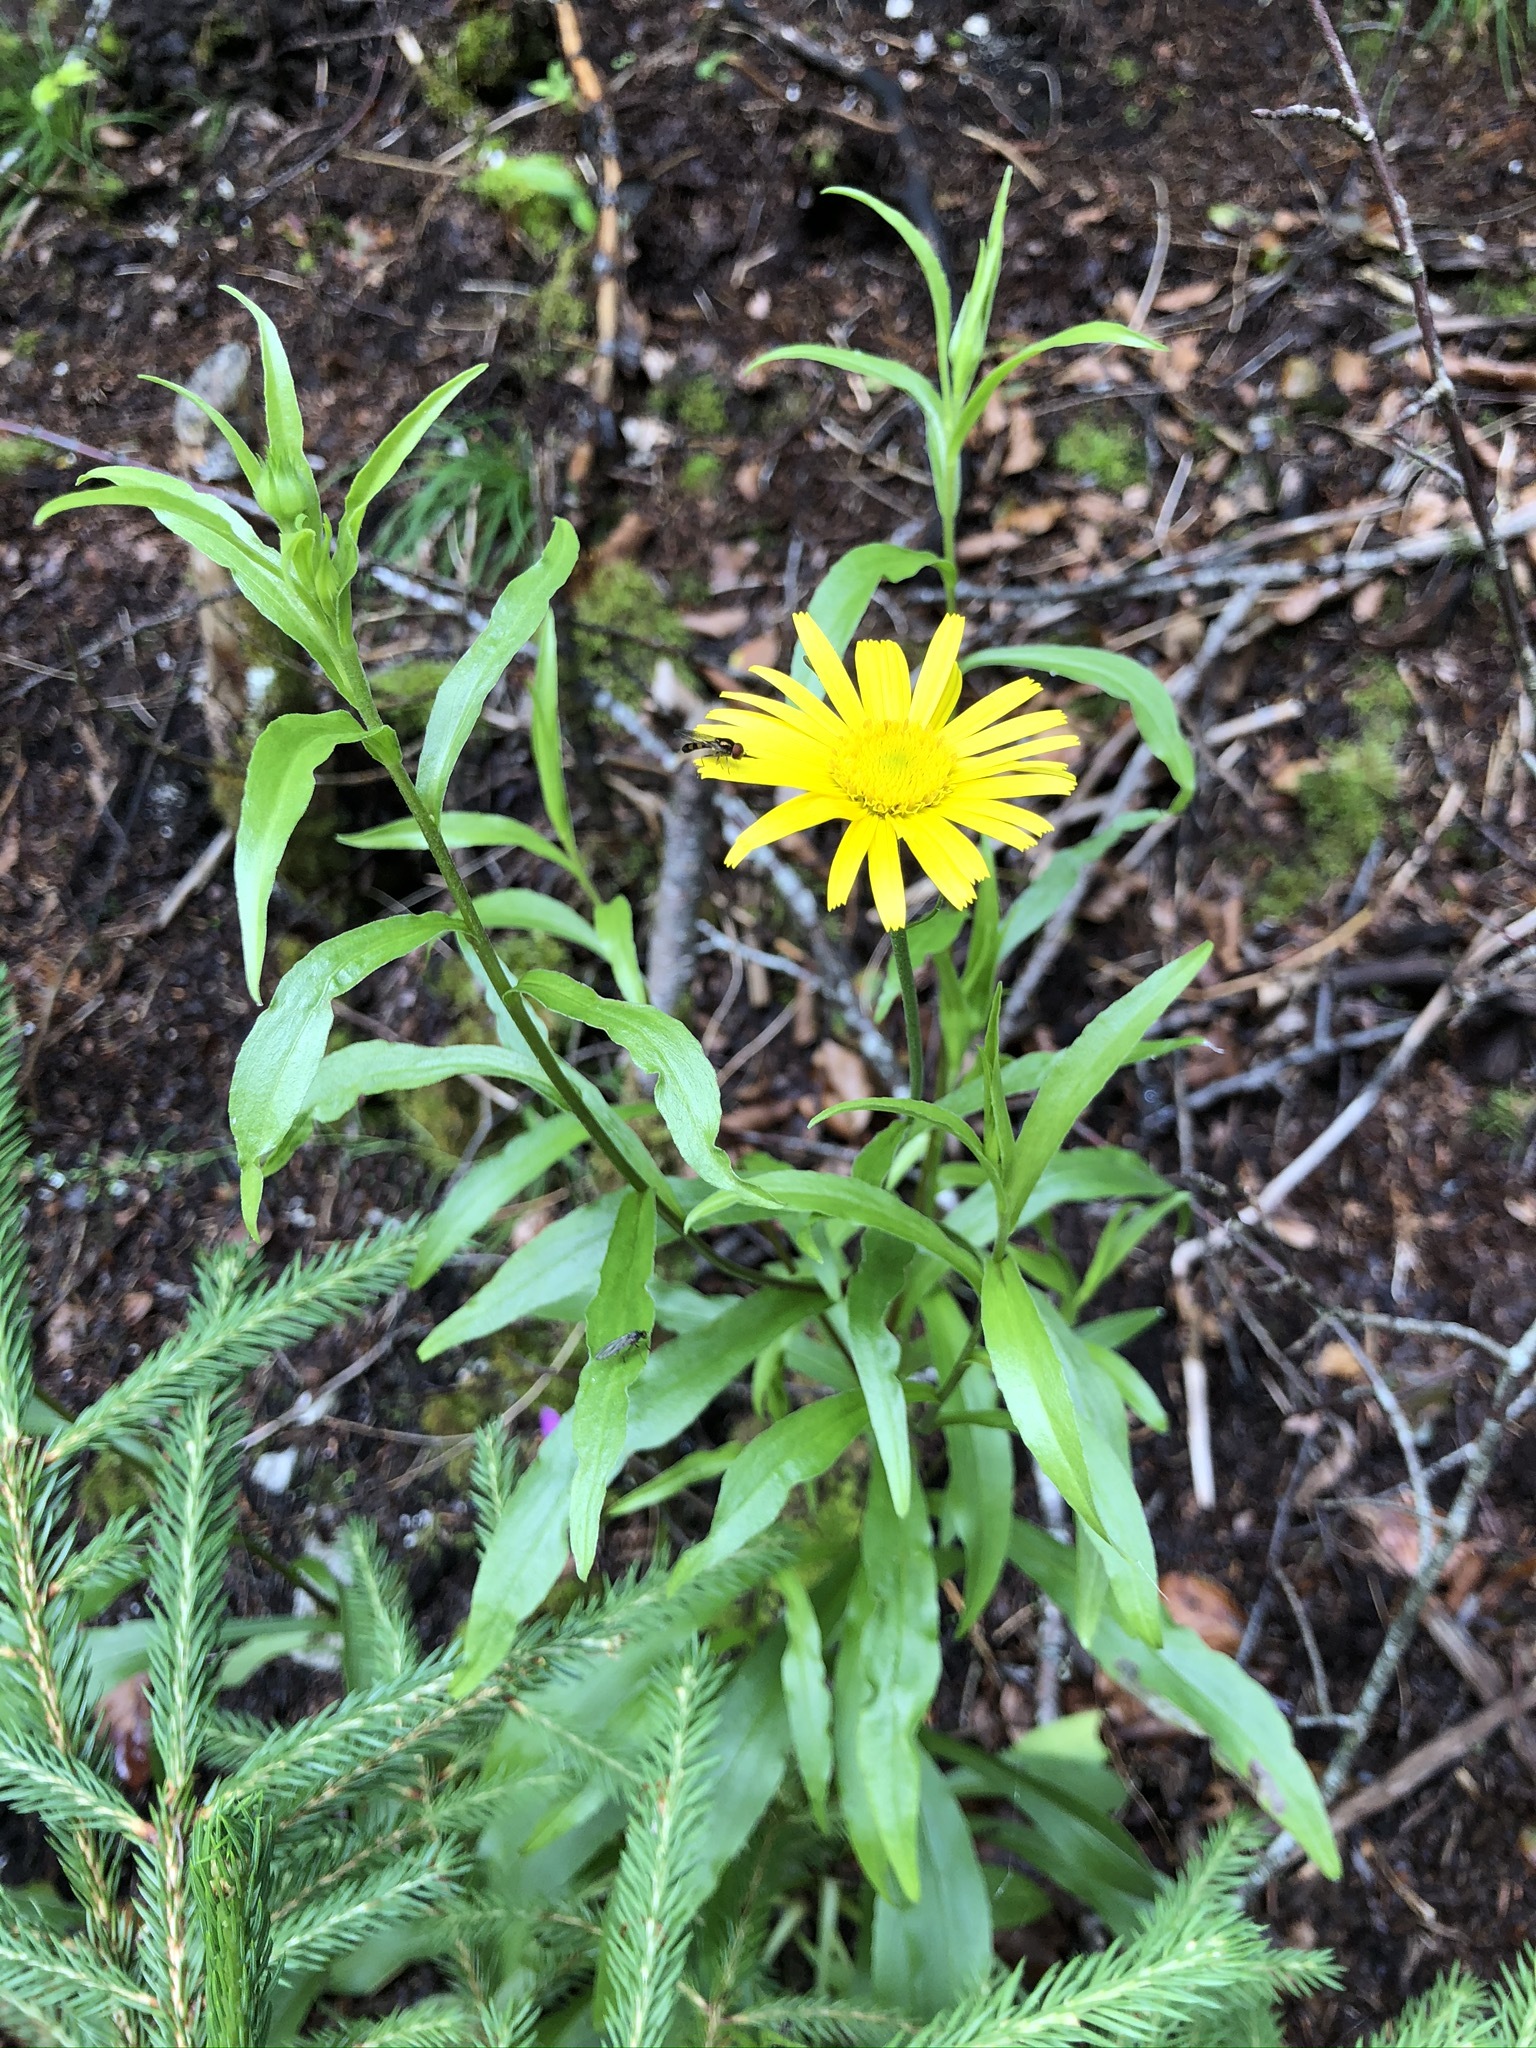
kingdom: Plantae
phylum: Tracheophyta
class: Magnoliopsida
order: Asterales
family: Asteraceae
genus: Buphthalmum
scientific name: Buphthalmum salicifolium
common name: Willow-leaved yellow-oxeye
